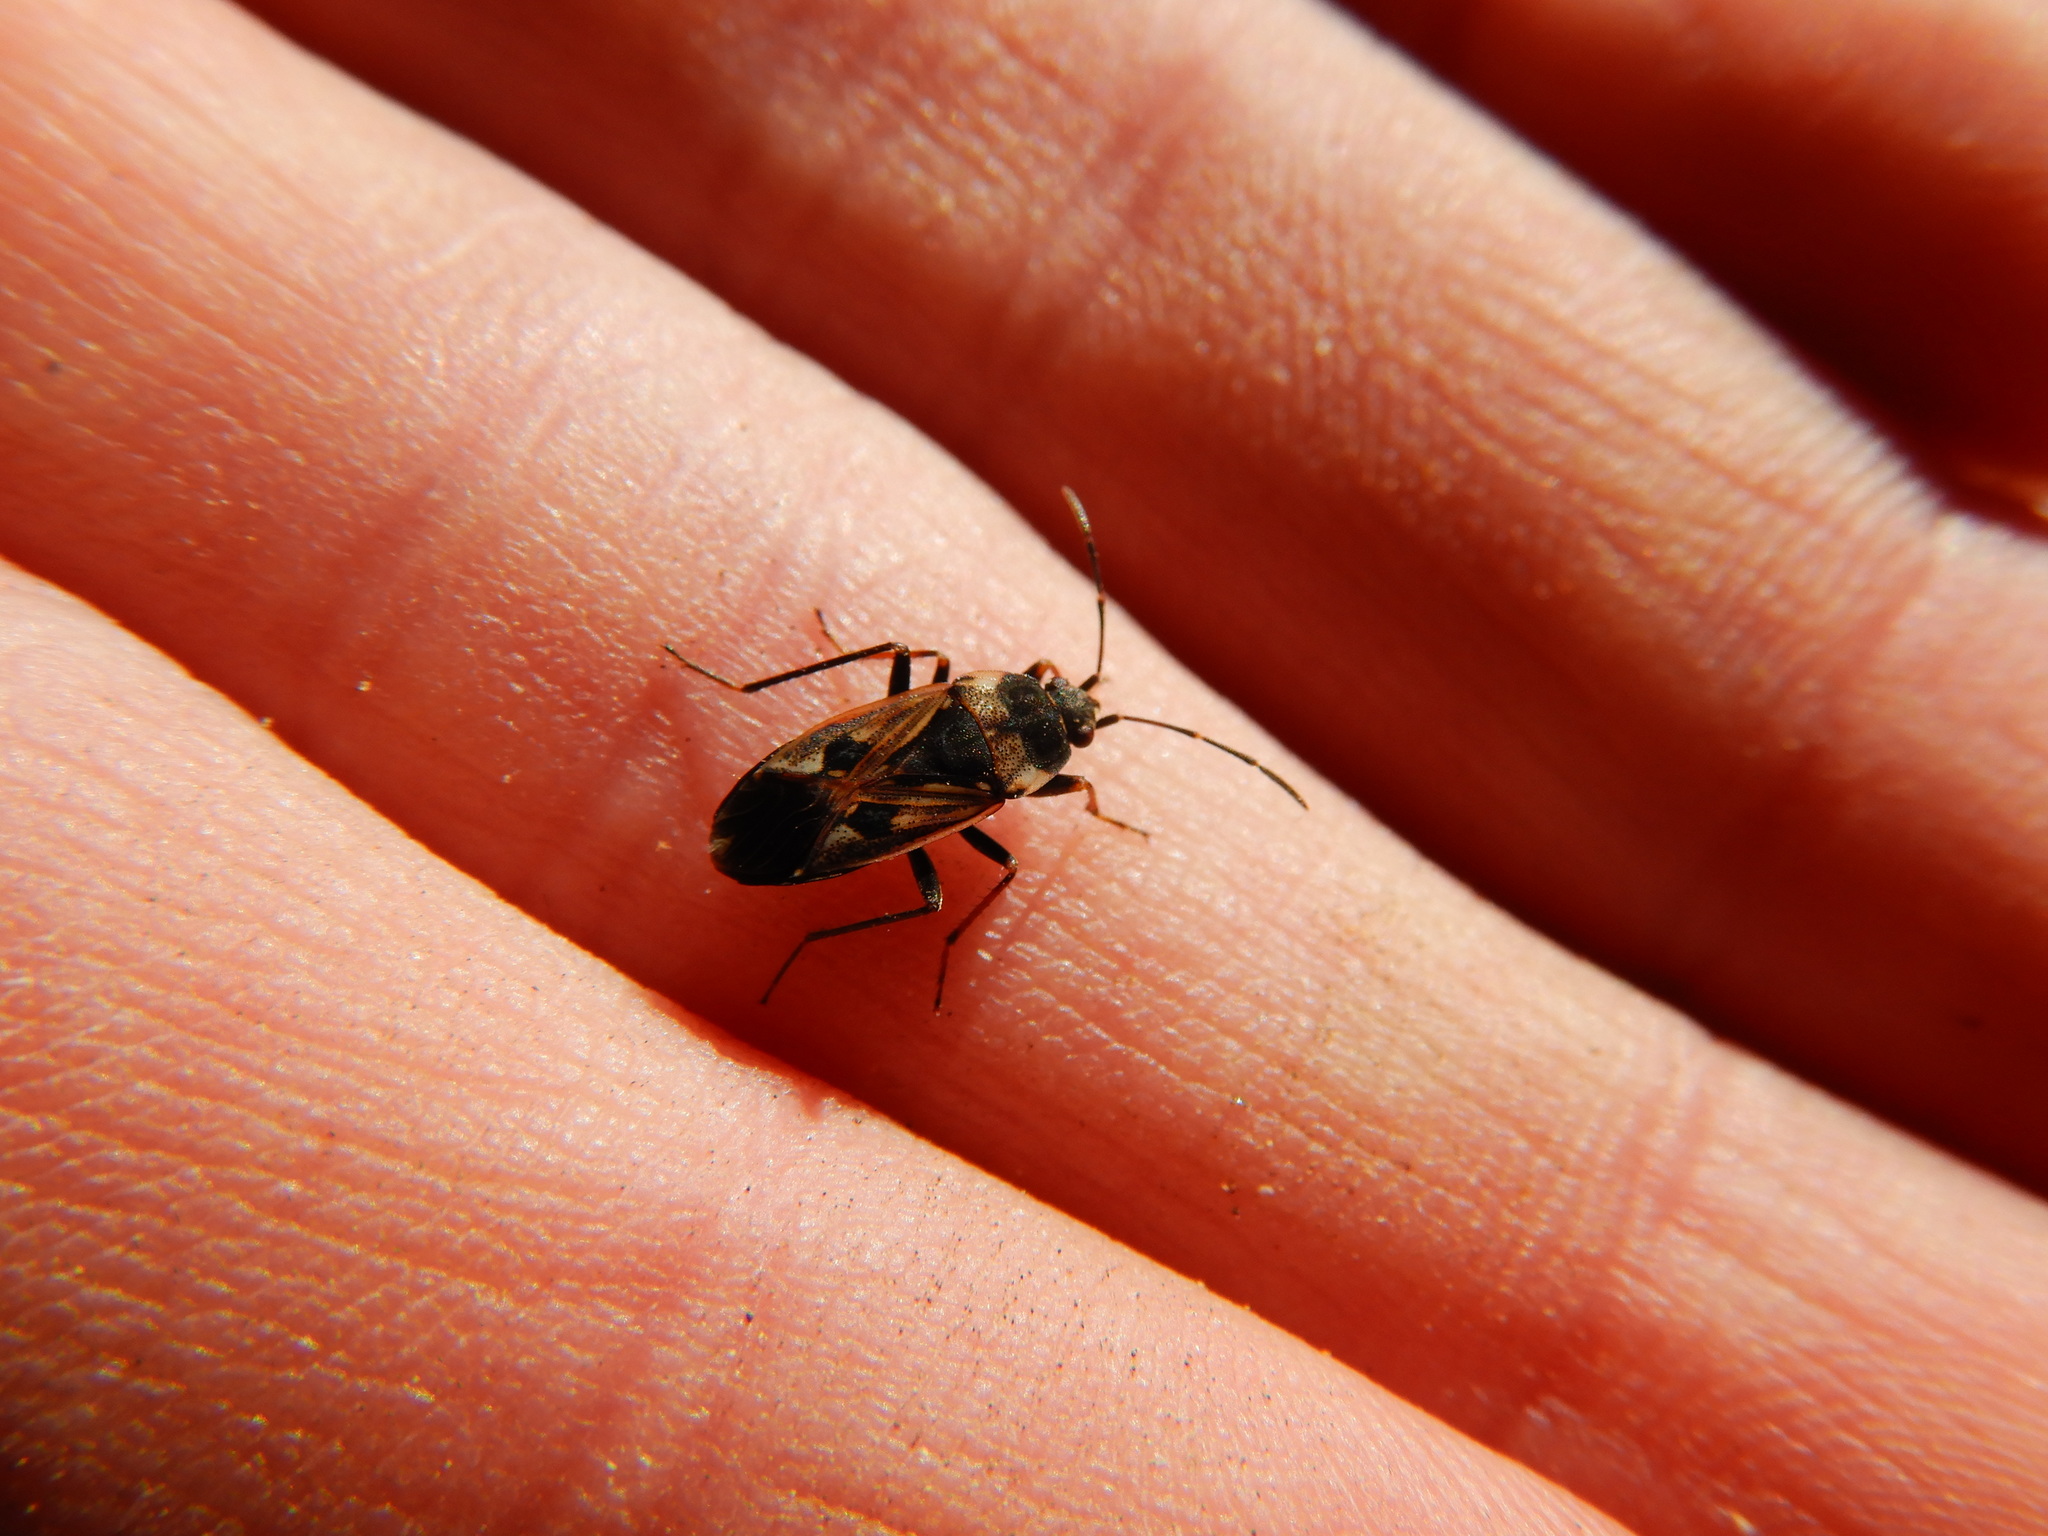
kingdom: Animalia
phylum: Arthropoda
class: Insecta
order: Hemiptera
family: Rhyparochromidae
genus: Rhyparochromus
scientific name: Rhyparochromus vulgaris
